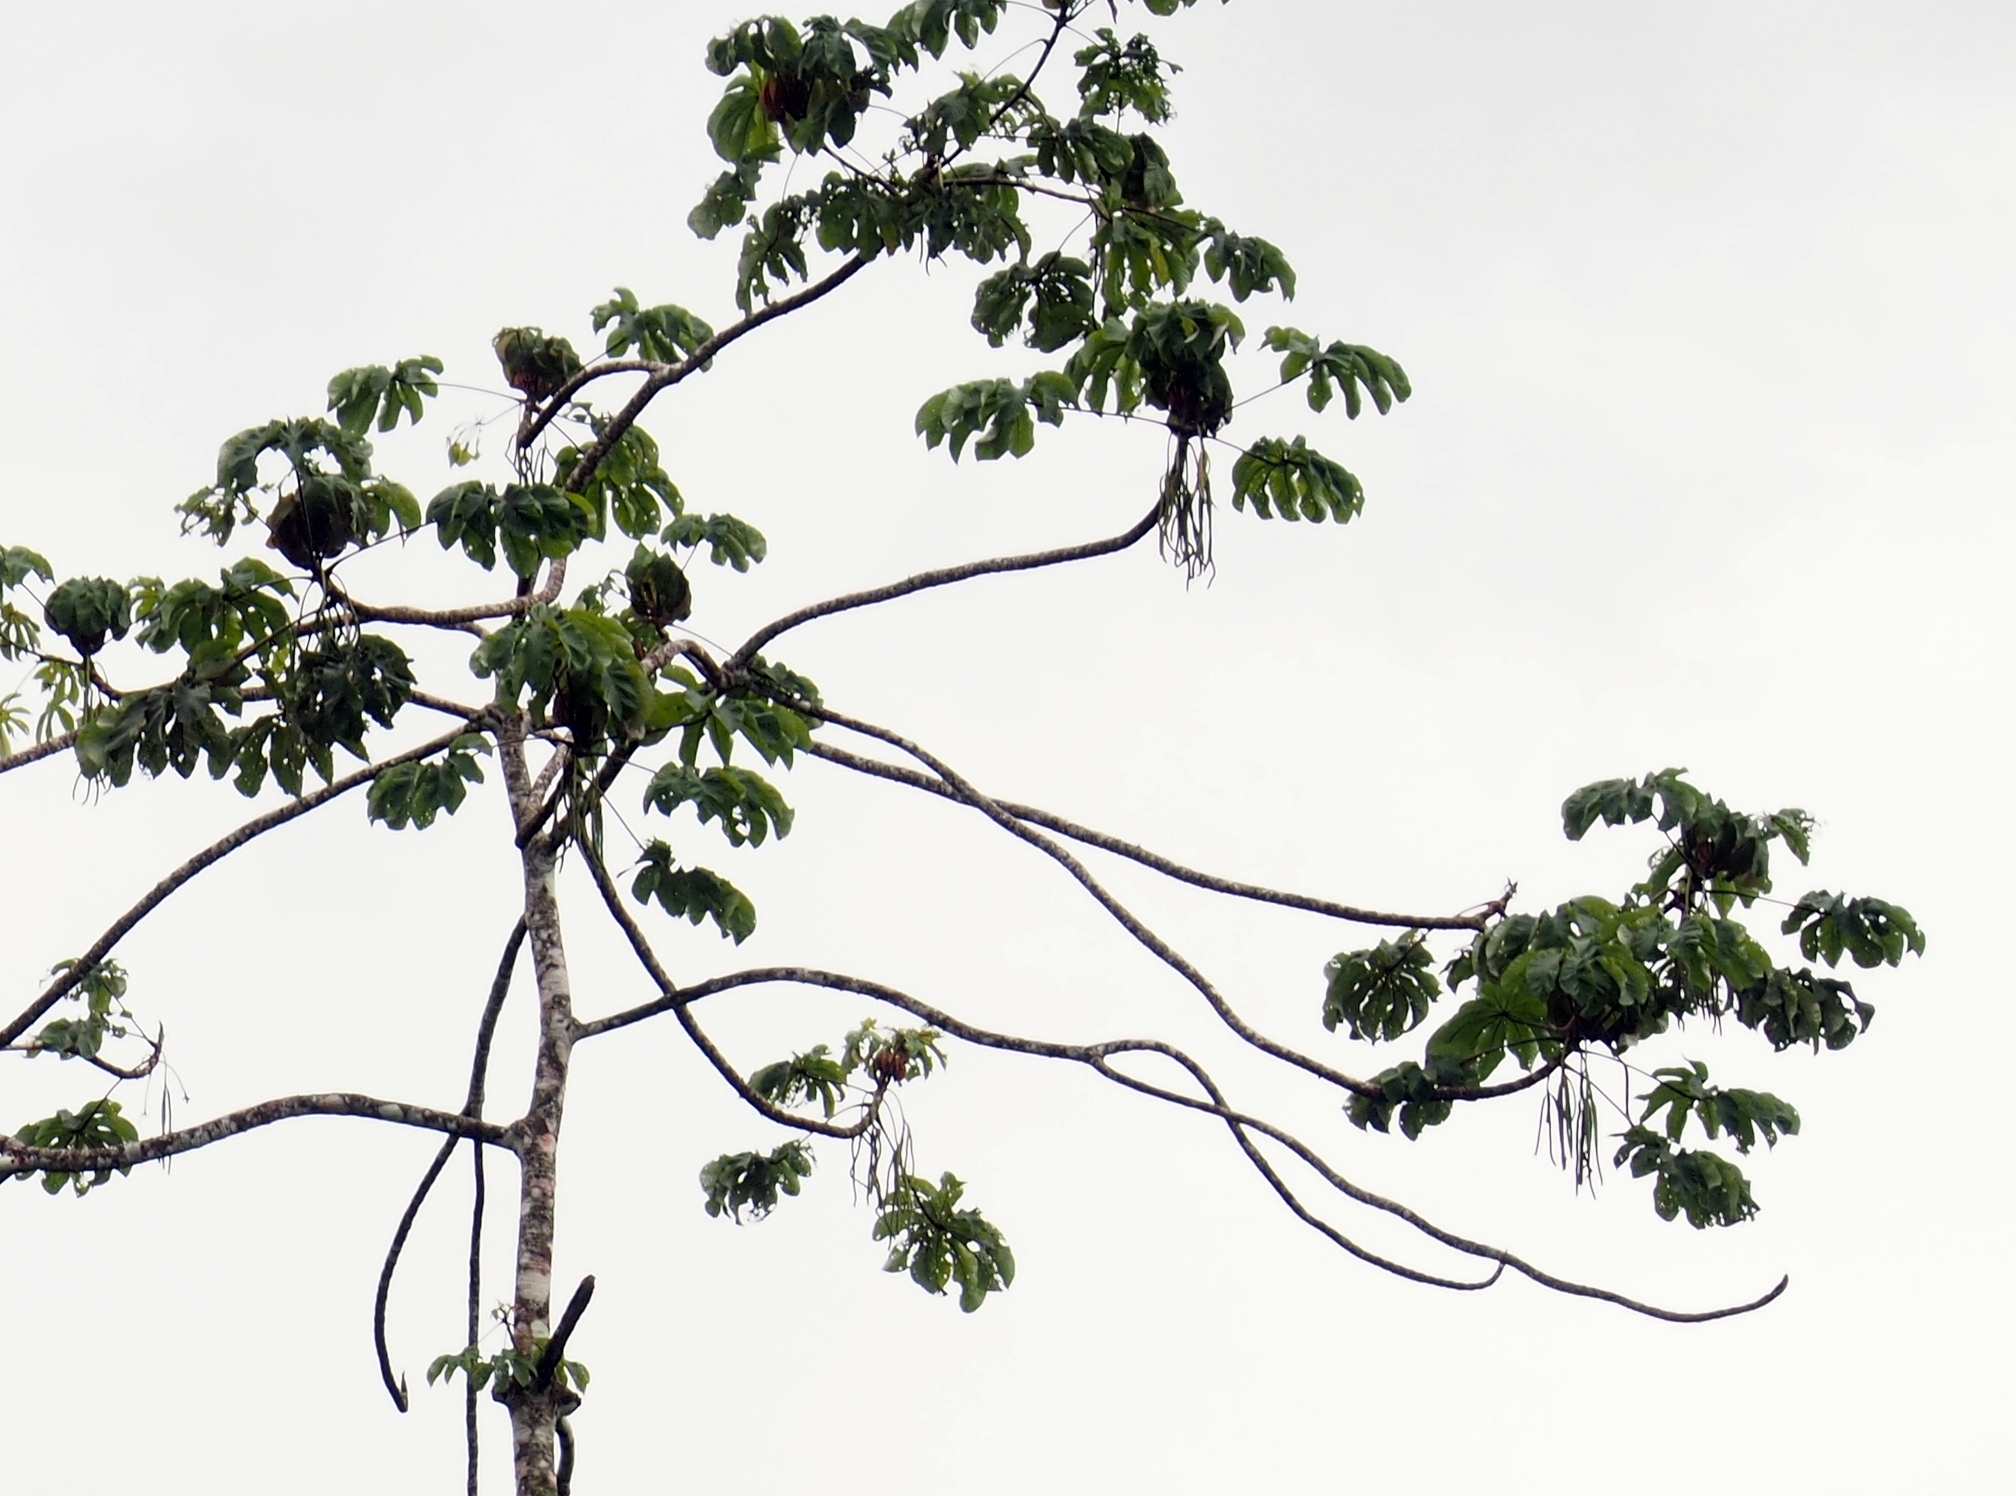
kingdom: Plantae
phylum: Tracheophyta
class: Magnoliopsida
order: Rosales
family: Urticaceae
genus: Cecropia
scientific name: Cecropia obtusifolia
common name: Trumpet tree
